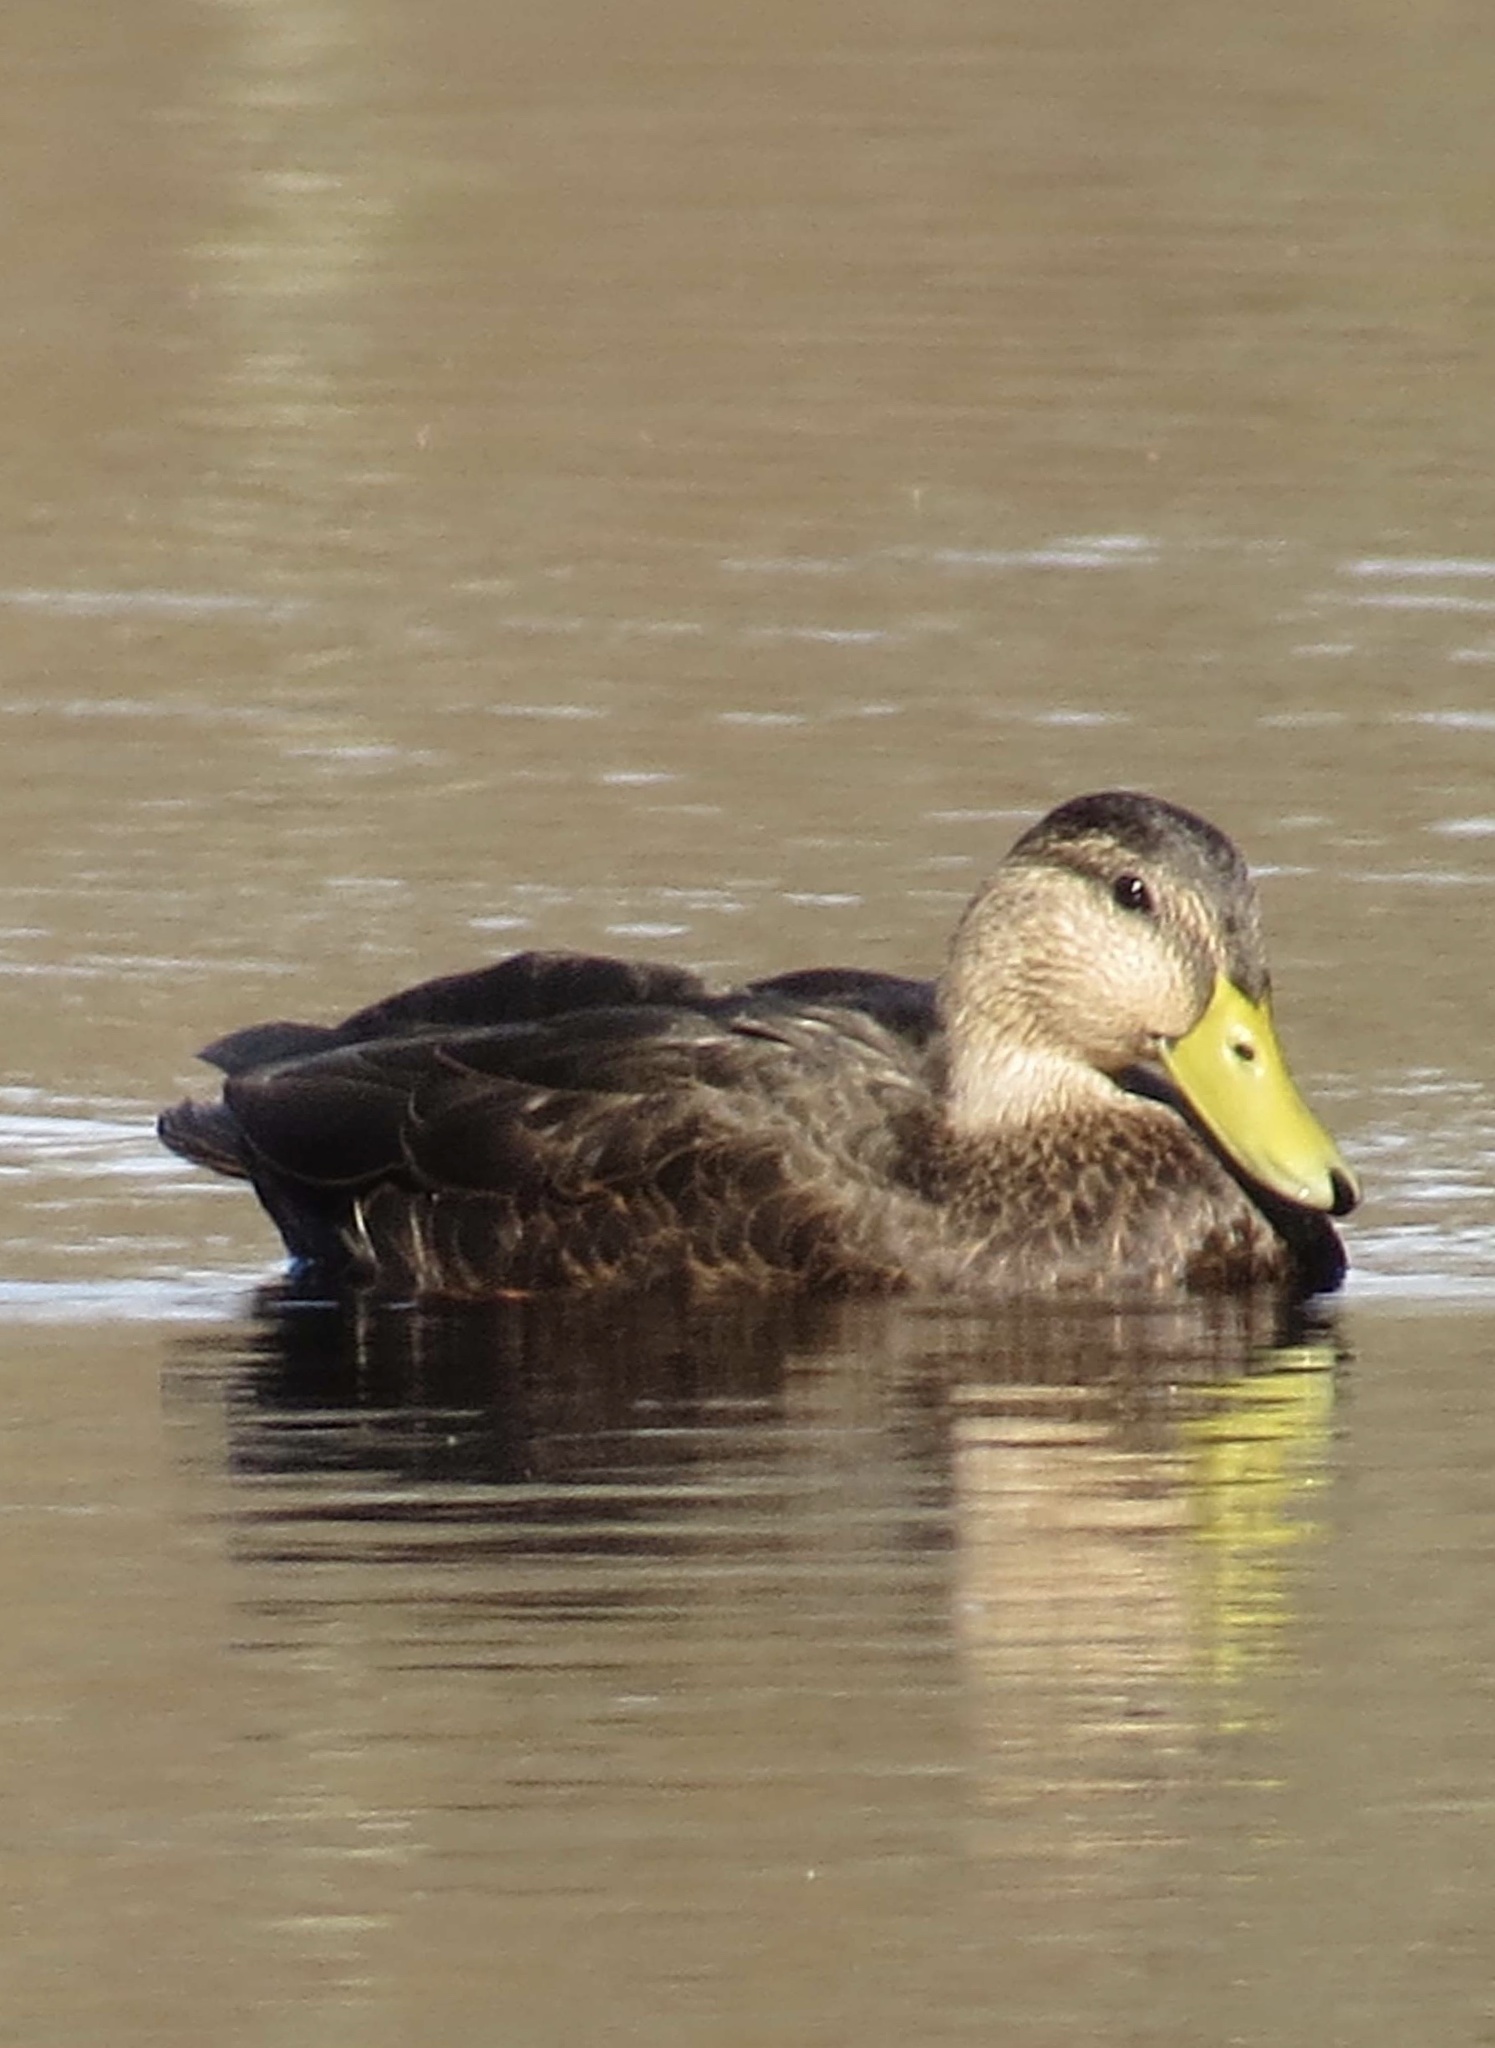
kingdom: Animalia
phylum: Chordata
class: Aves
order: Anseriformes
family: Anatidae
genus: Anas
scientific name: Anas rubripes
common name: American black duck
